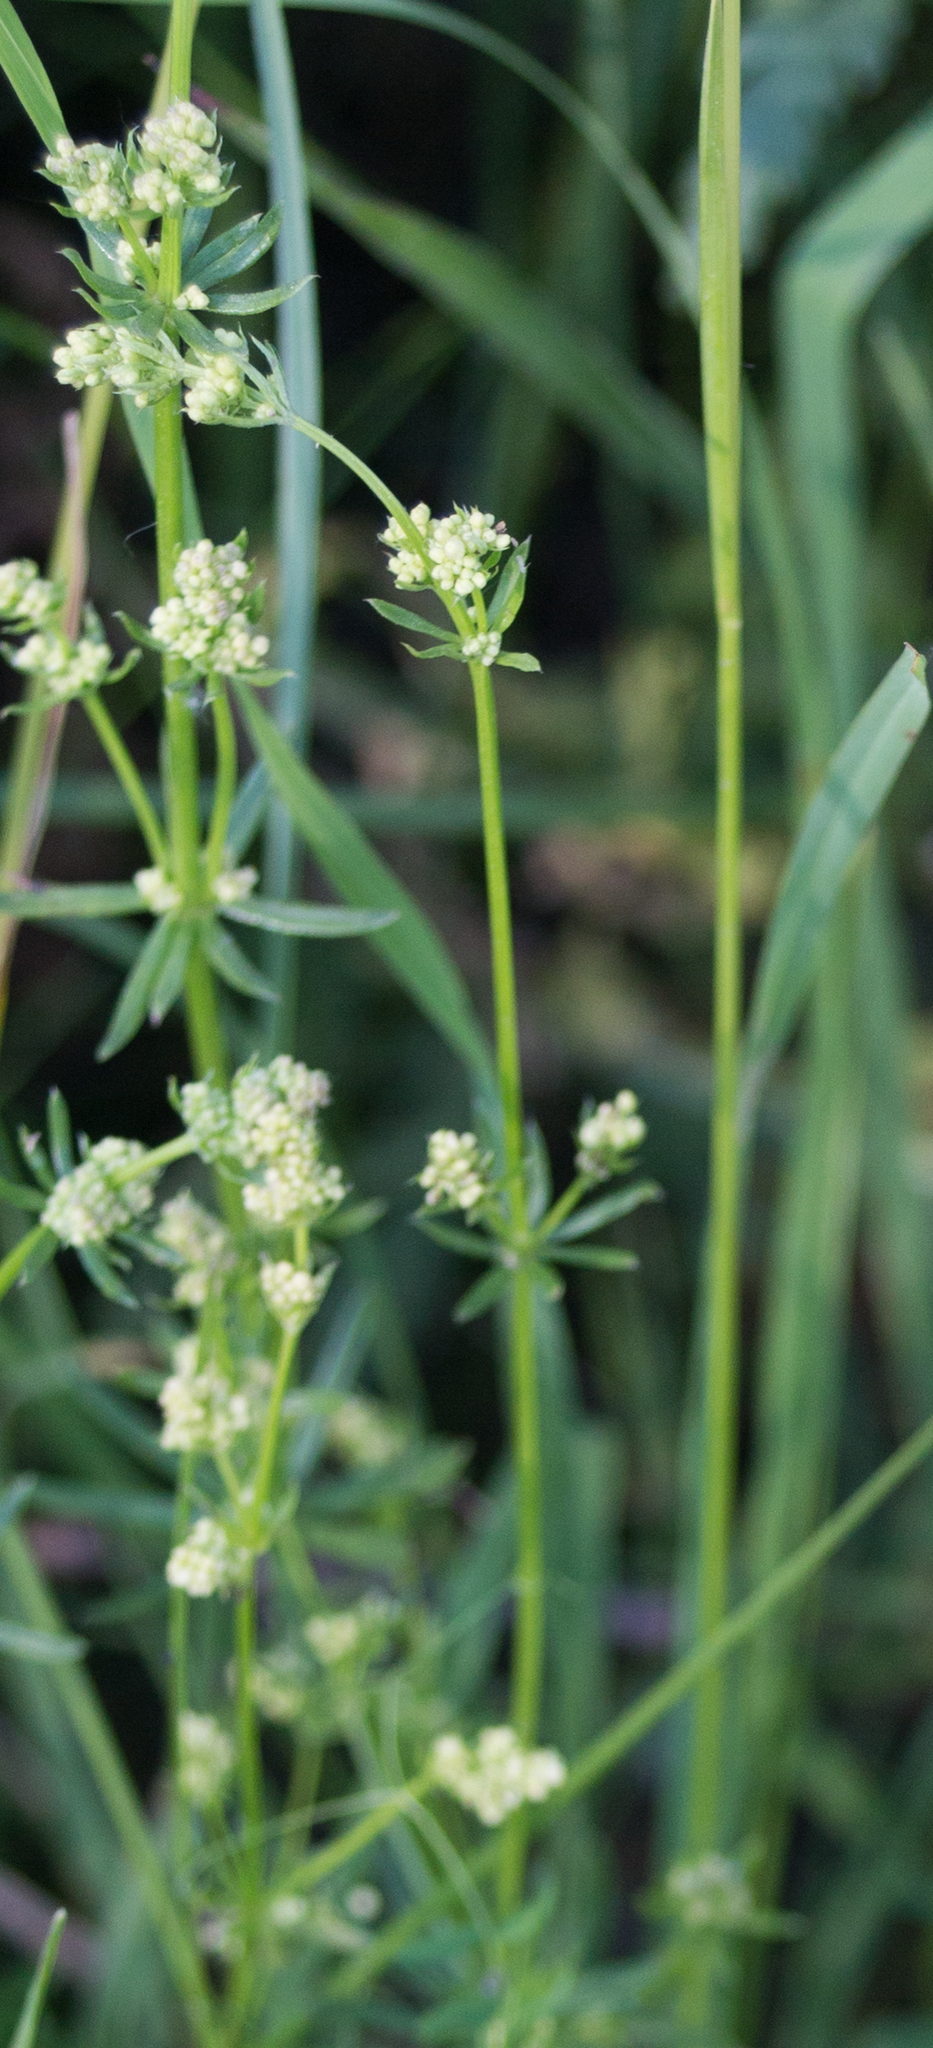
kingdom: Plantae
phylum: Tracheophyta
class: Magnoliopsida
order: Gentianales
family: Rubiaceae
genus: Galium
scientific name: Galium mollugo
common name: Hedge bedstraw
